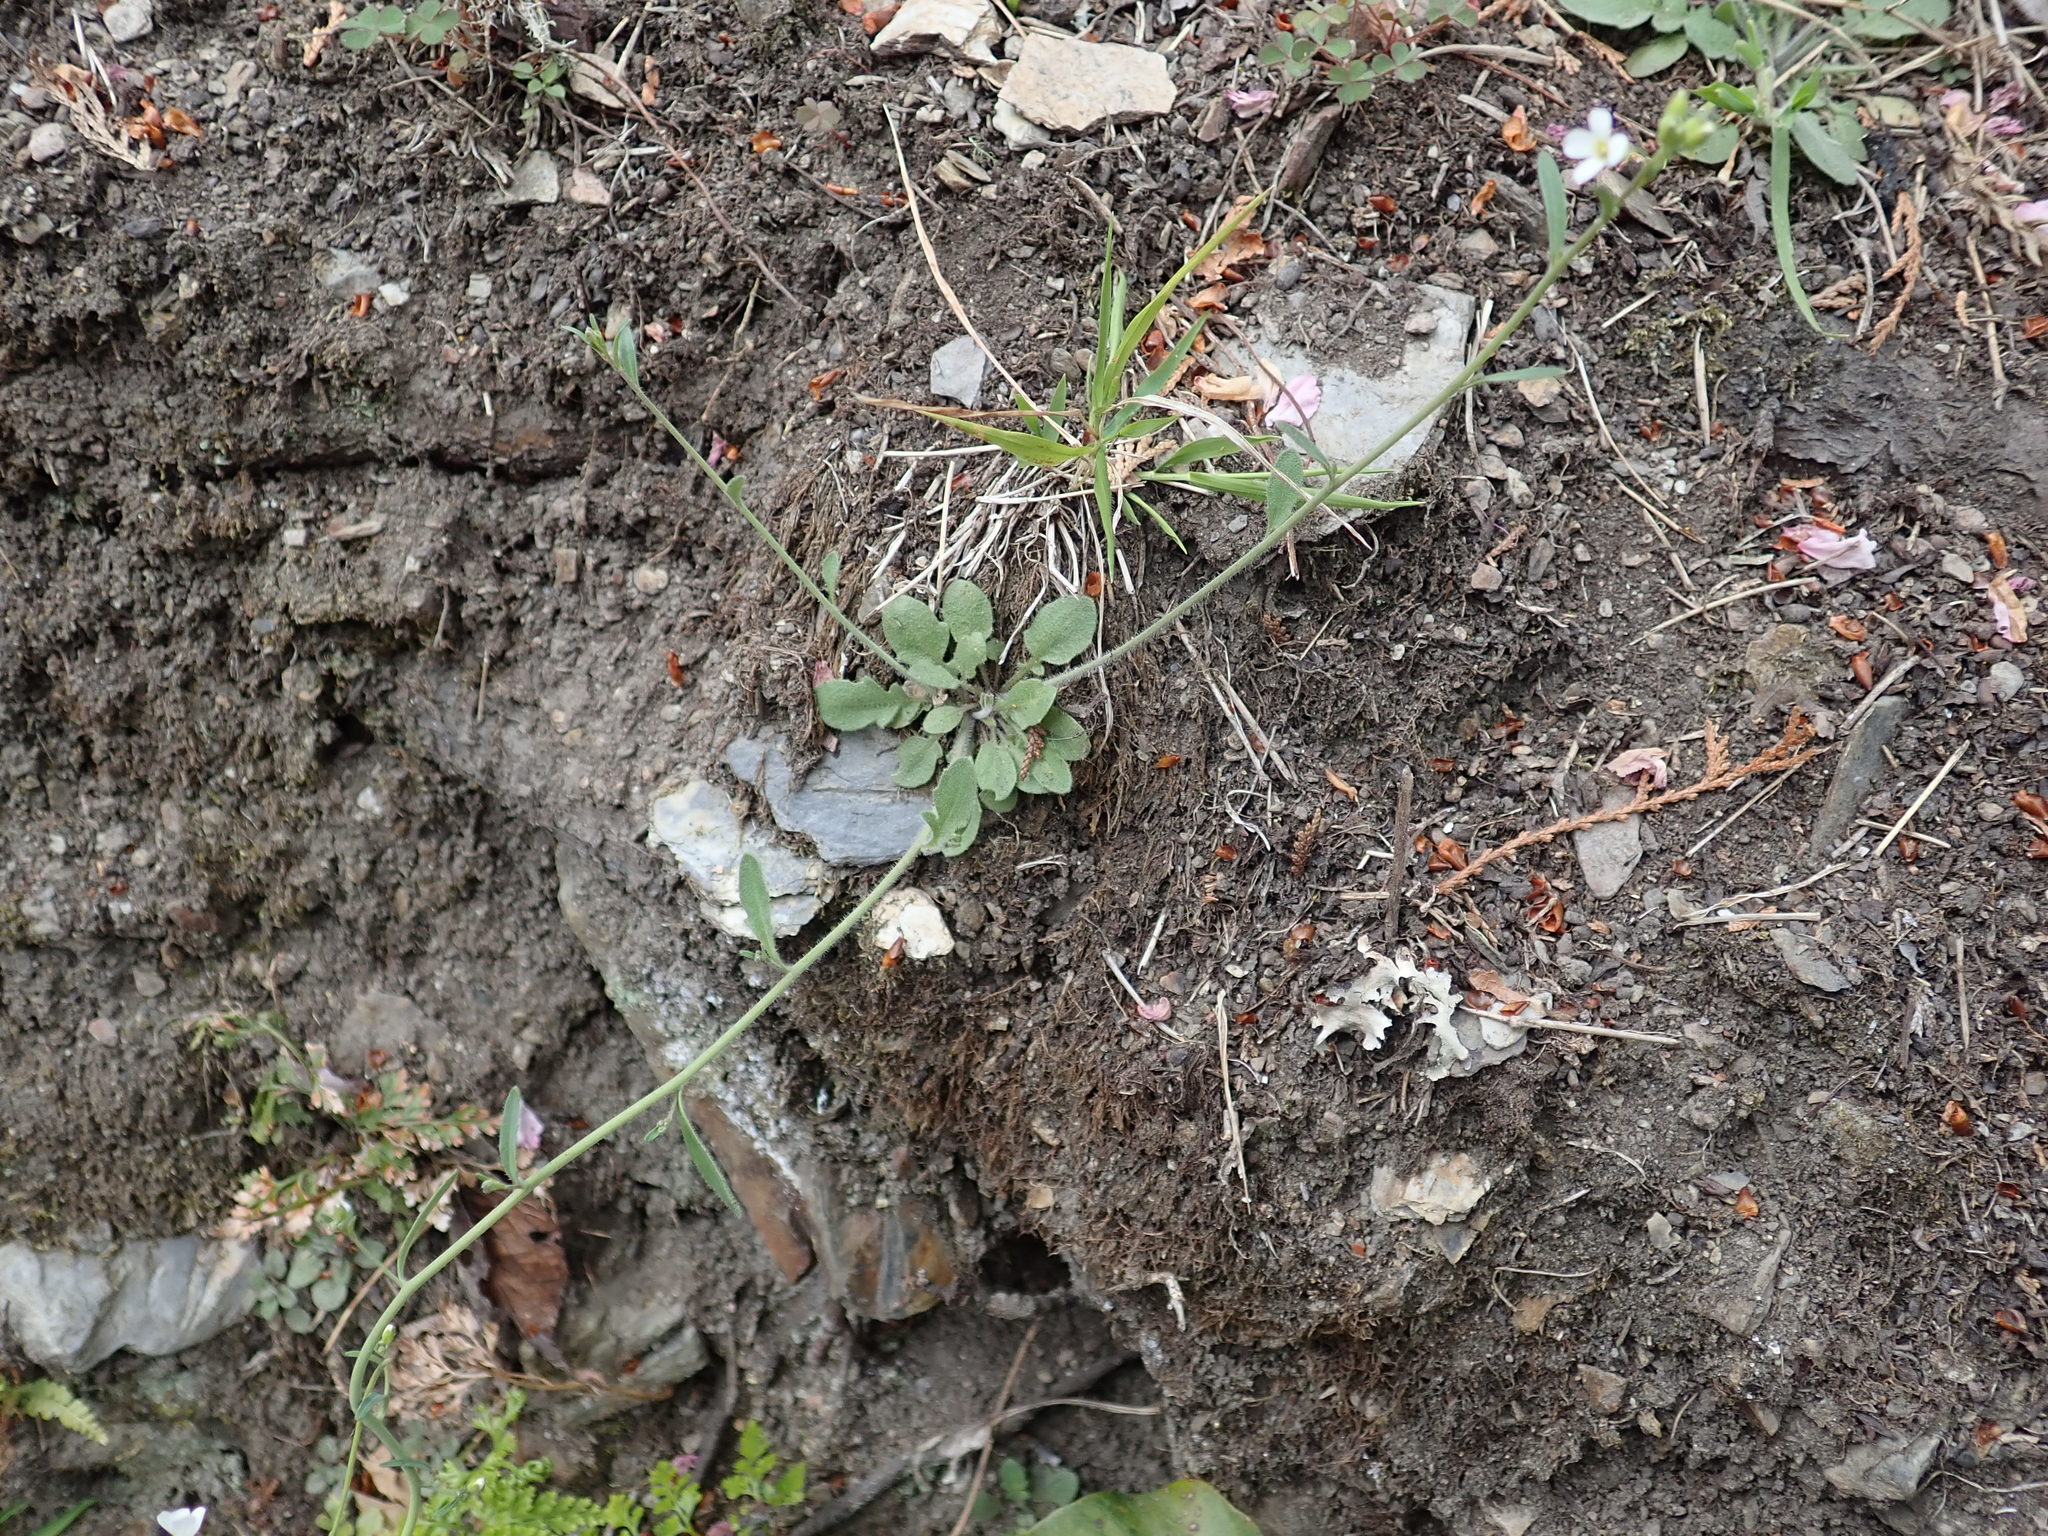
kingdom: Plantae
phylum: Tracheophyta
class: Magnoliopsida
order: Brassicales
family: Brassicaceae
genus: Arabidopsis
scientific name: Arabidopsis lyrata
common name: Lyrate rockcress
